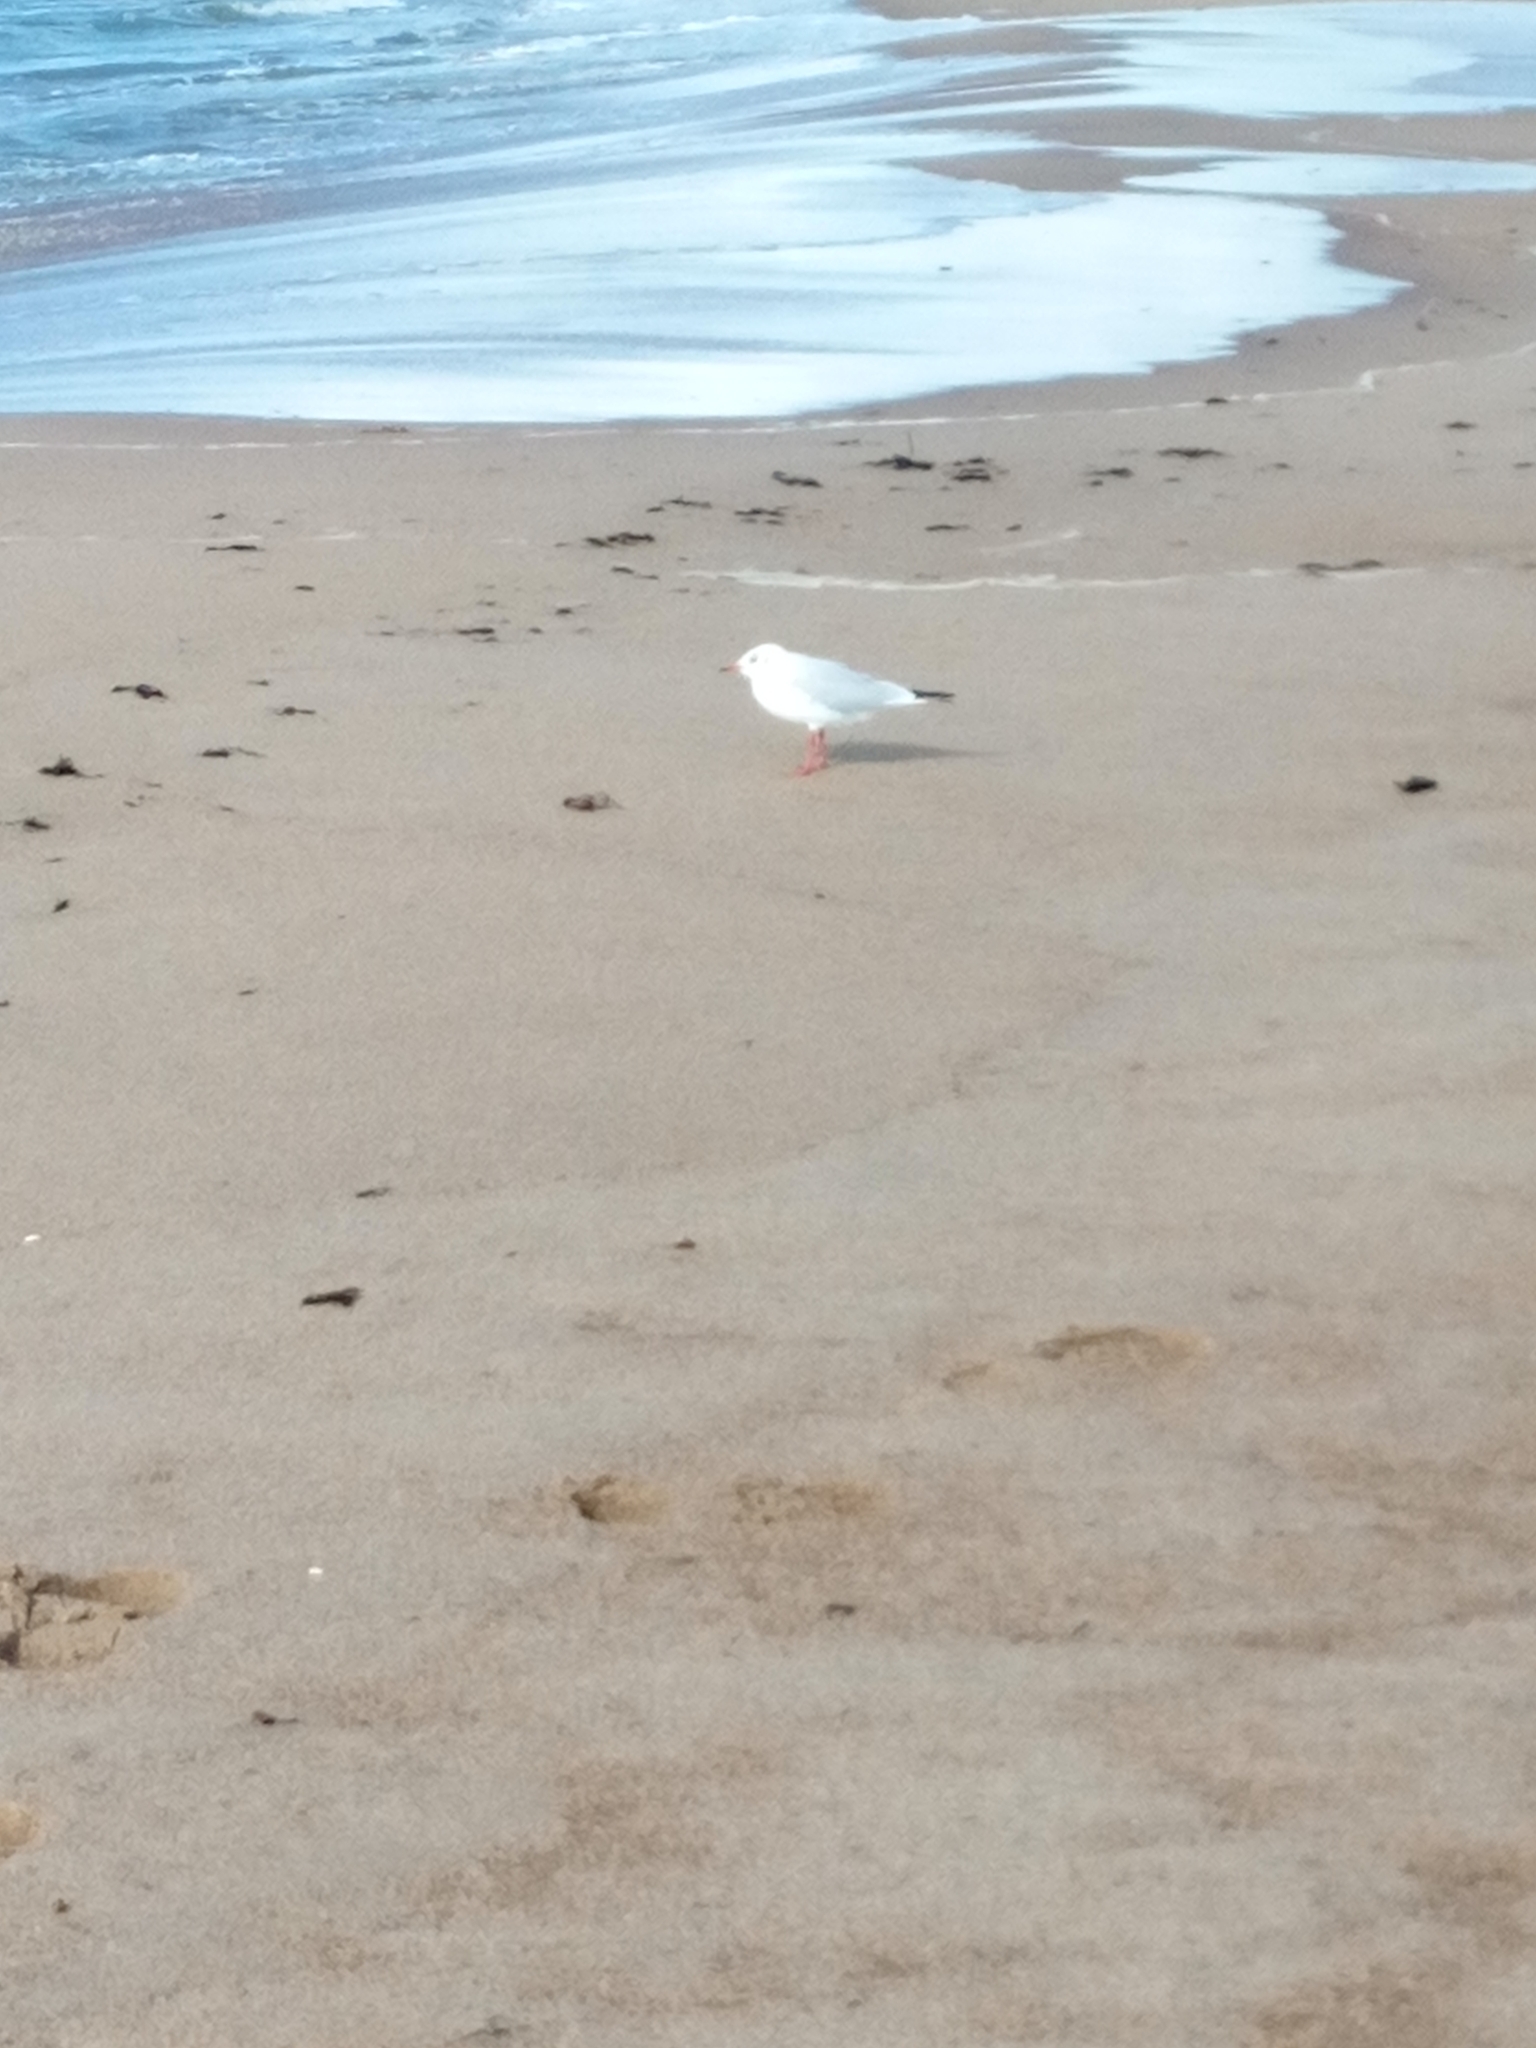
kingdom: Animalia
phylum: Chordata
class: Aves
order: Charadriiformes
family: Laridae
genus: Chroicocephalus
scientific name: Chroicocephalus ridibundus
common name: Black-headed gull
